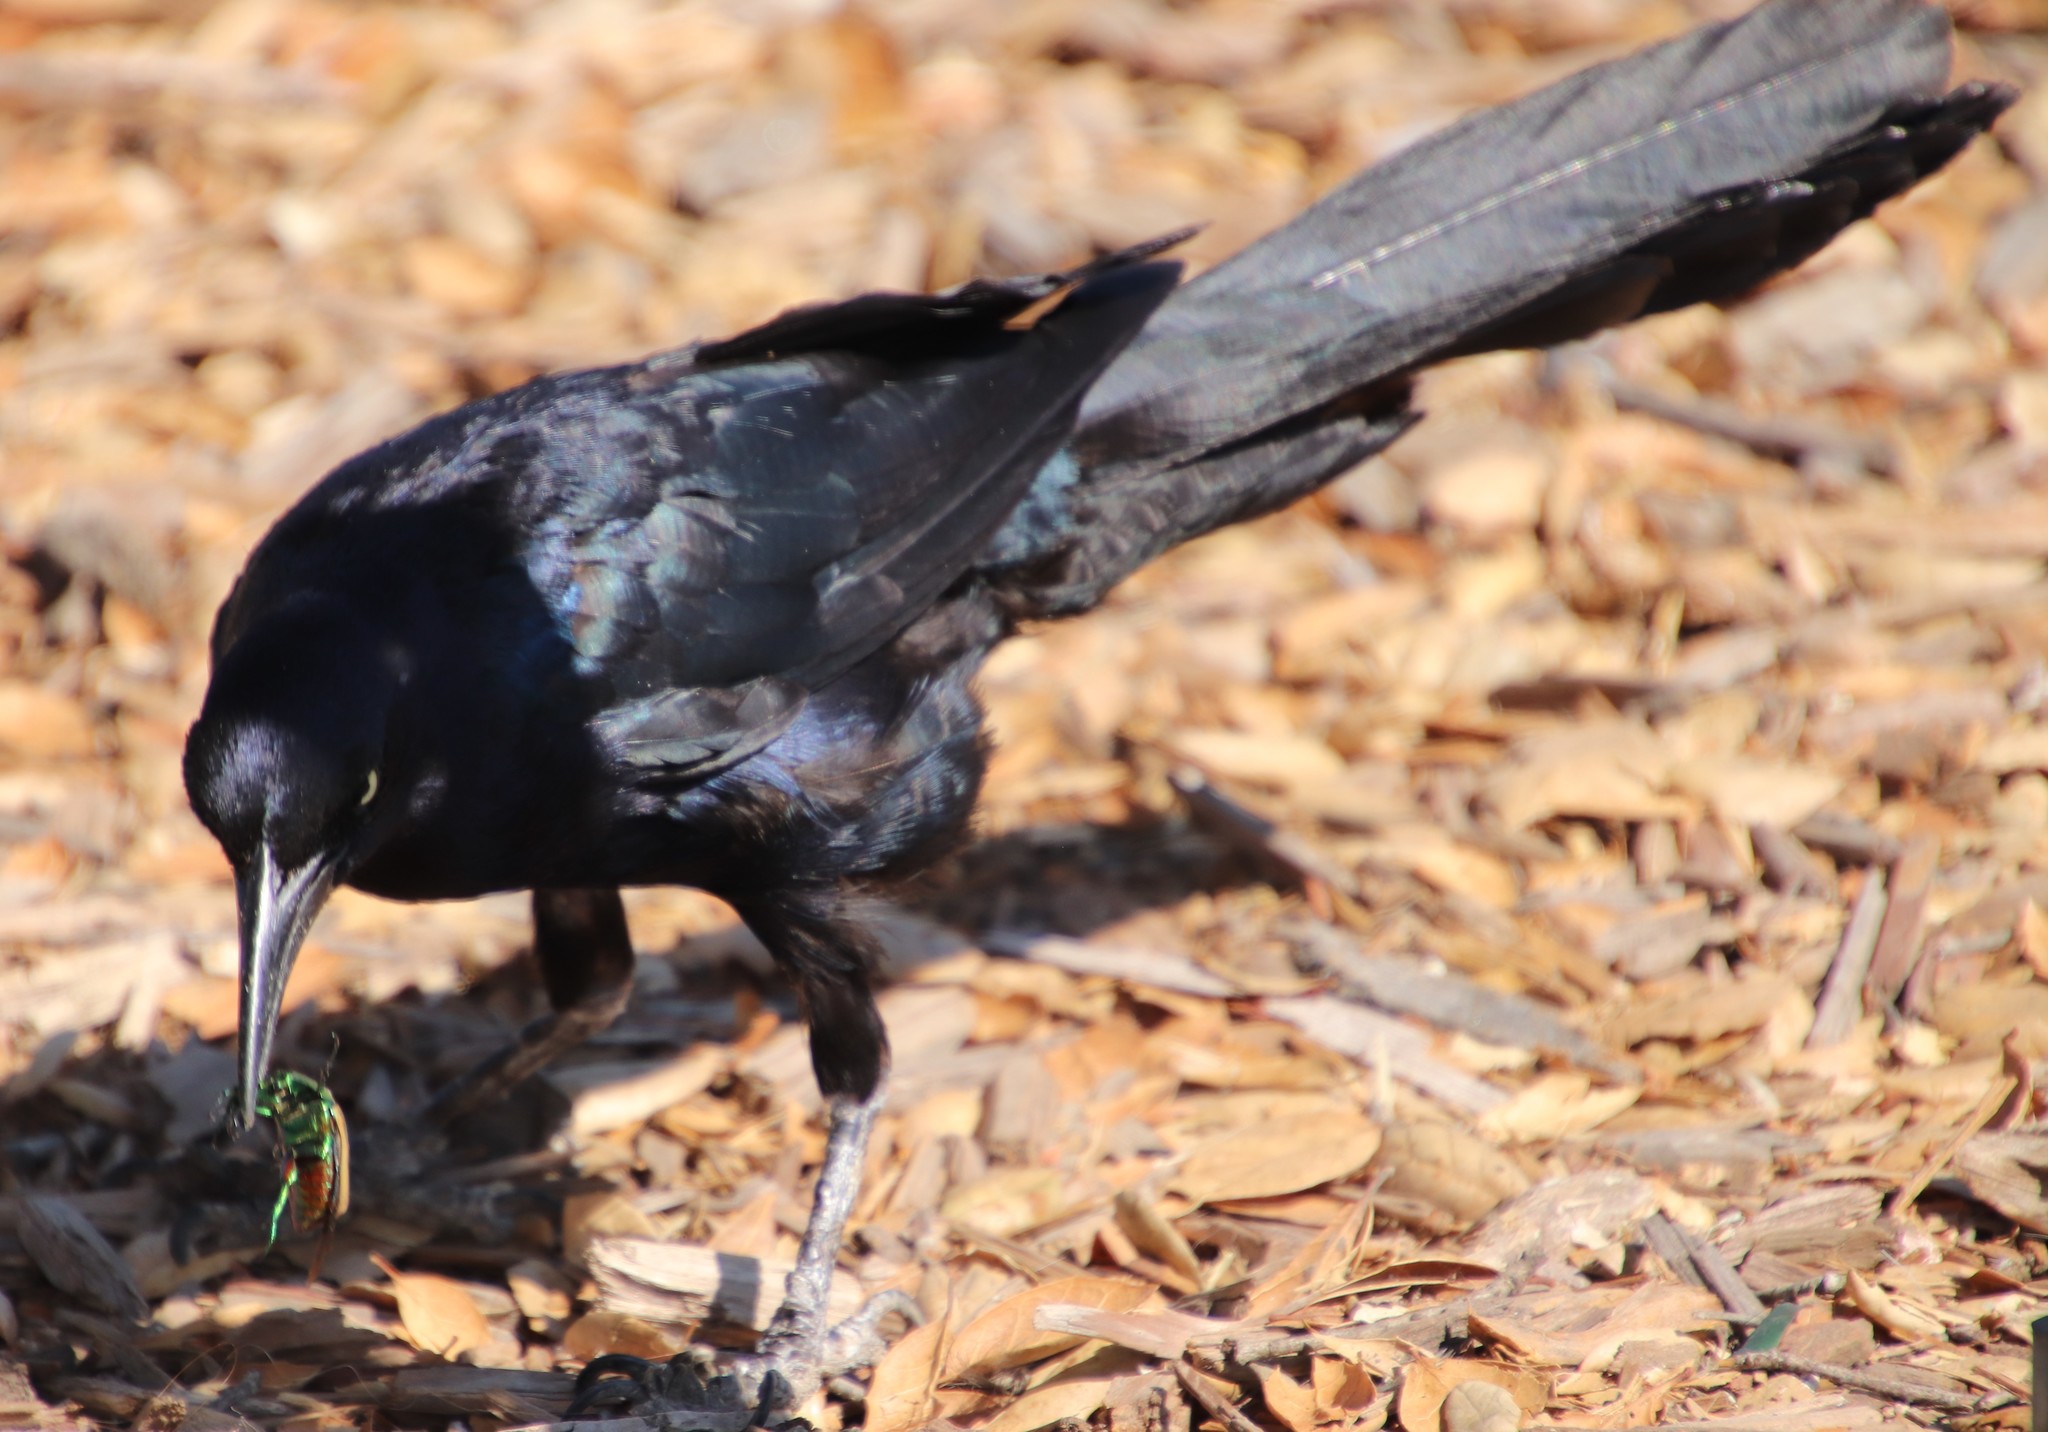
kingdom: Animalia
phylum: Chordata
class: Aves
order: Passeriformes
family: Icteridae
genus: Quiscalus
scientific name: Quiscalus mexicanus
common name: Great-tailed grackle
